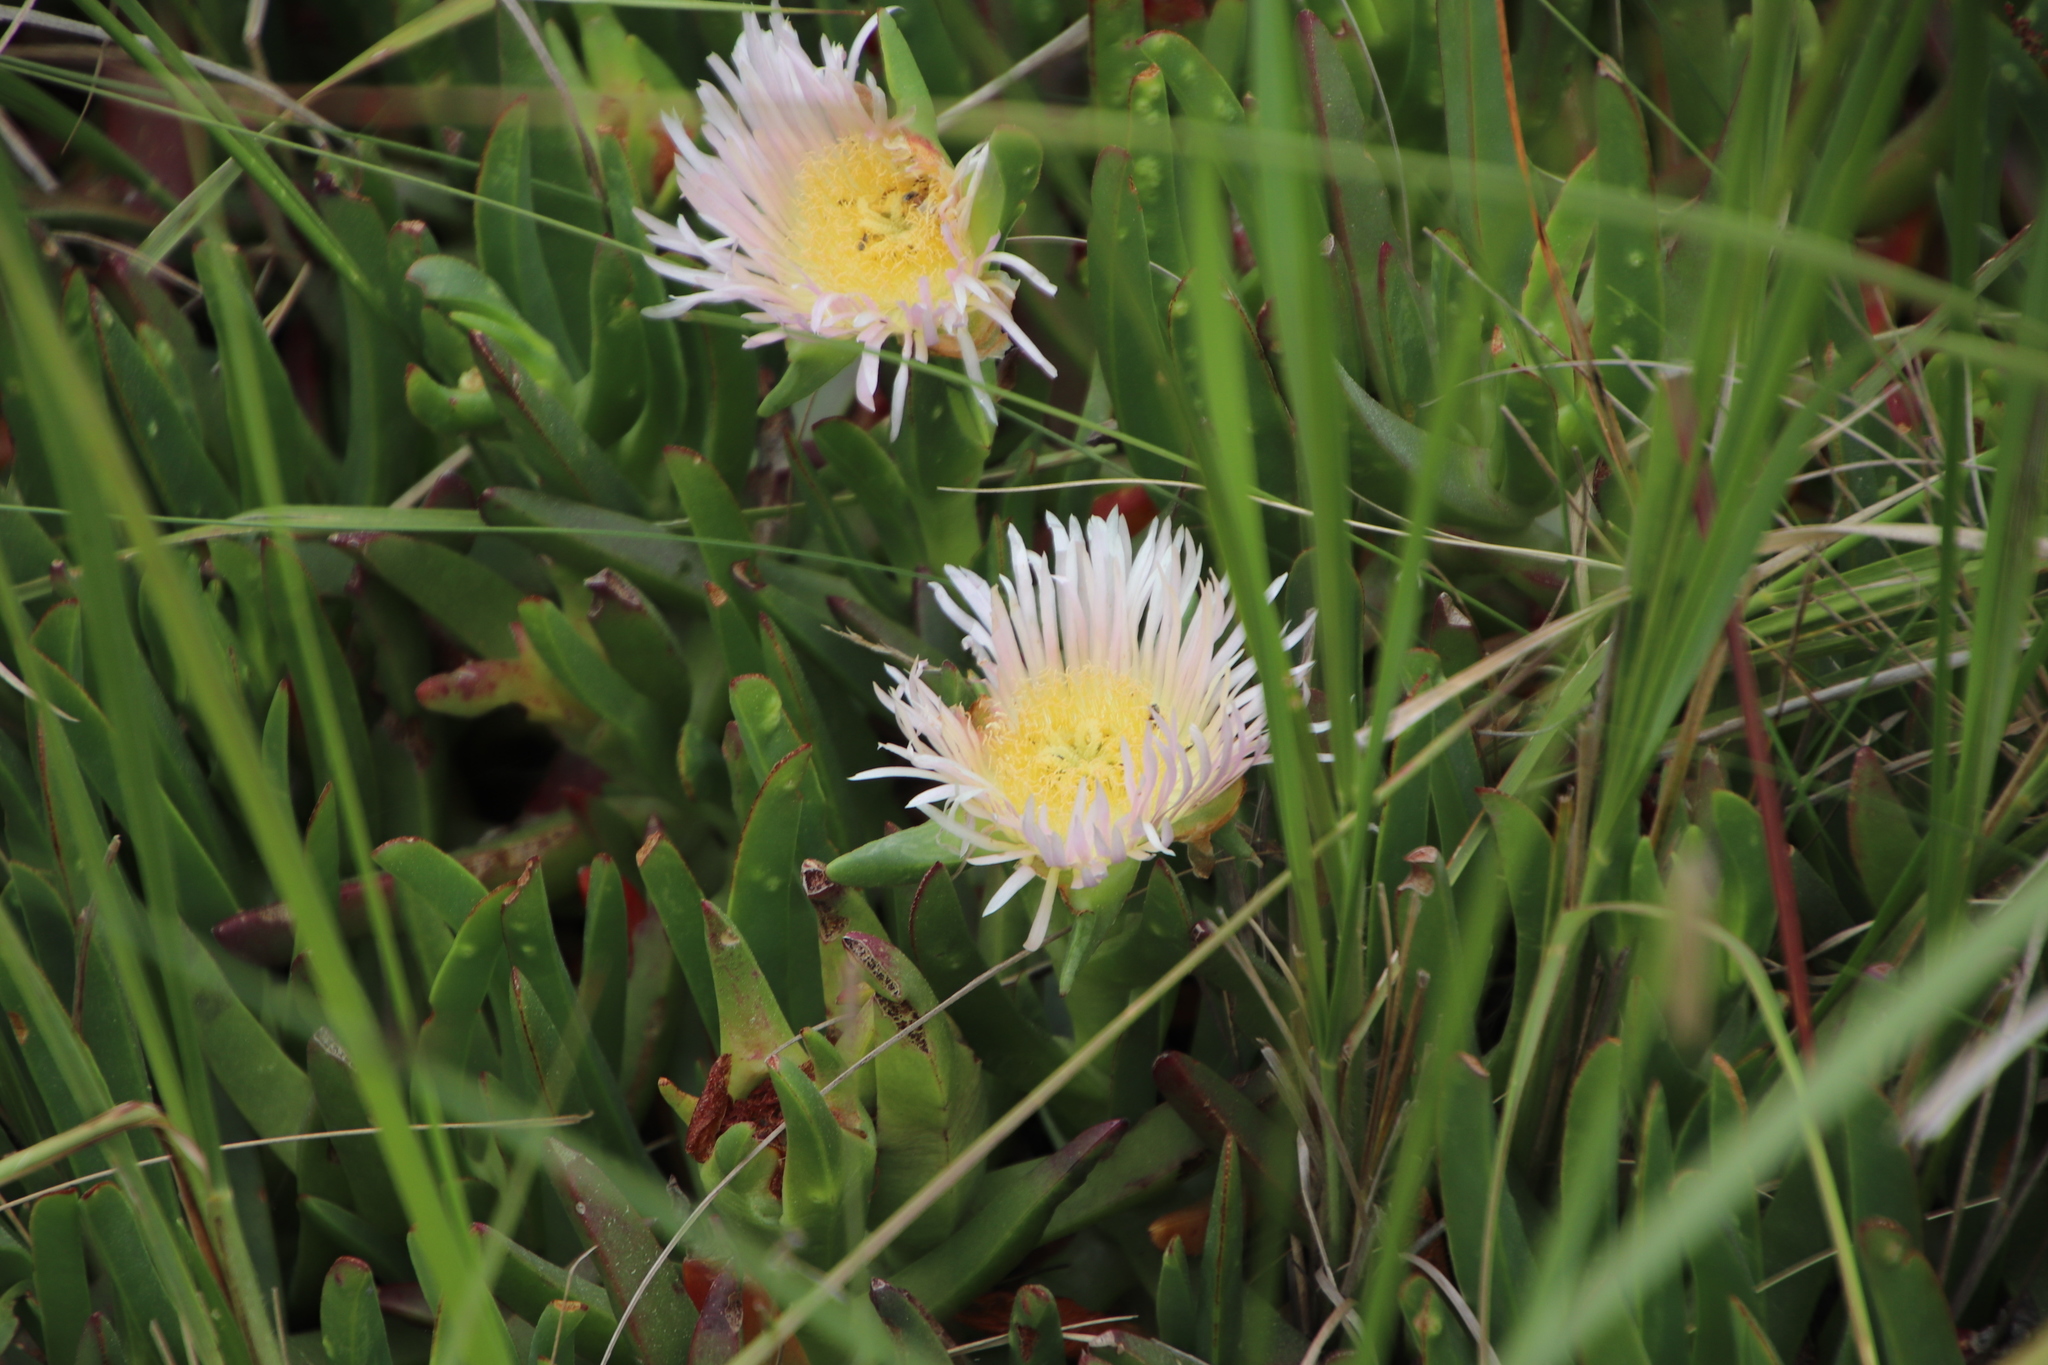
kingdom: Plantae
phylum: Tracheophyta
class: Magnoliopsida
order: Caryophyllales
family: Aizoaceae
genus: Carpobrotus
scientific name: Carpobrotus edulis
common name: Hottentot-fig
